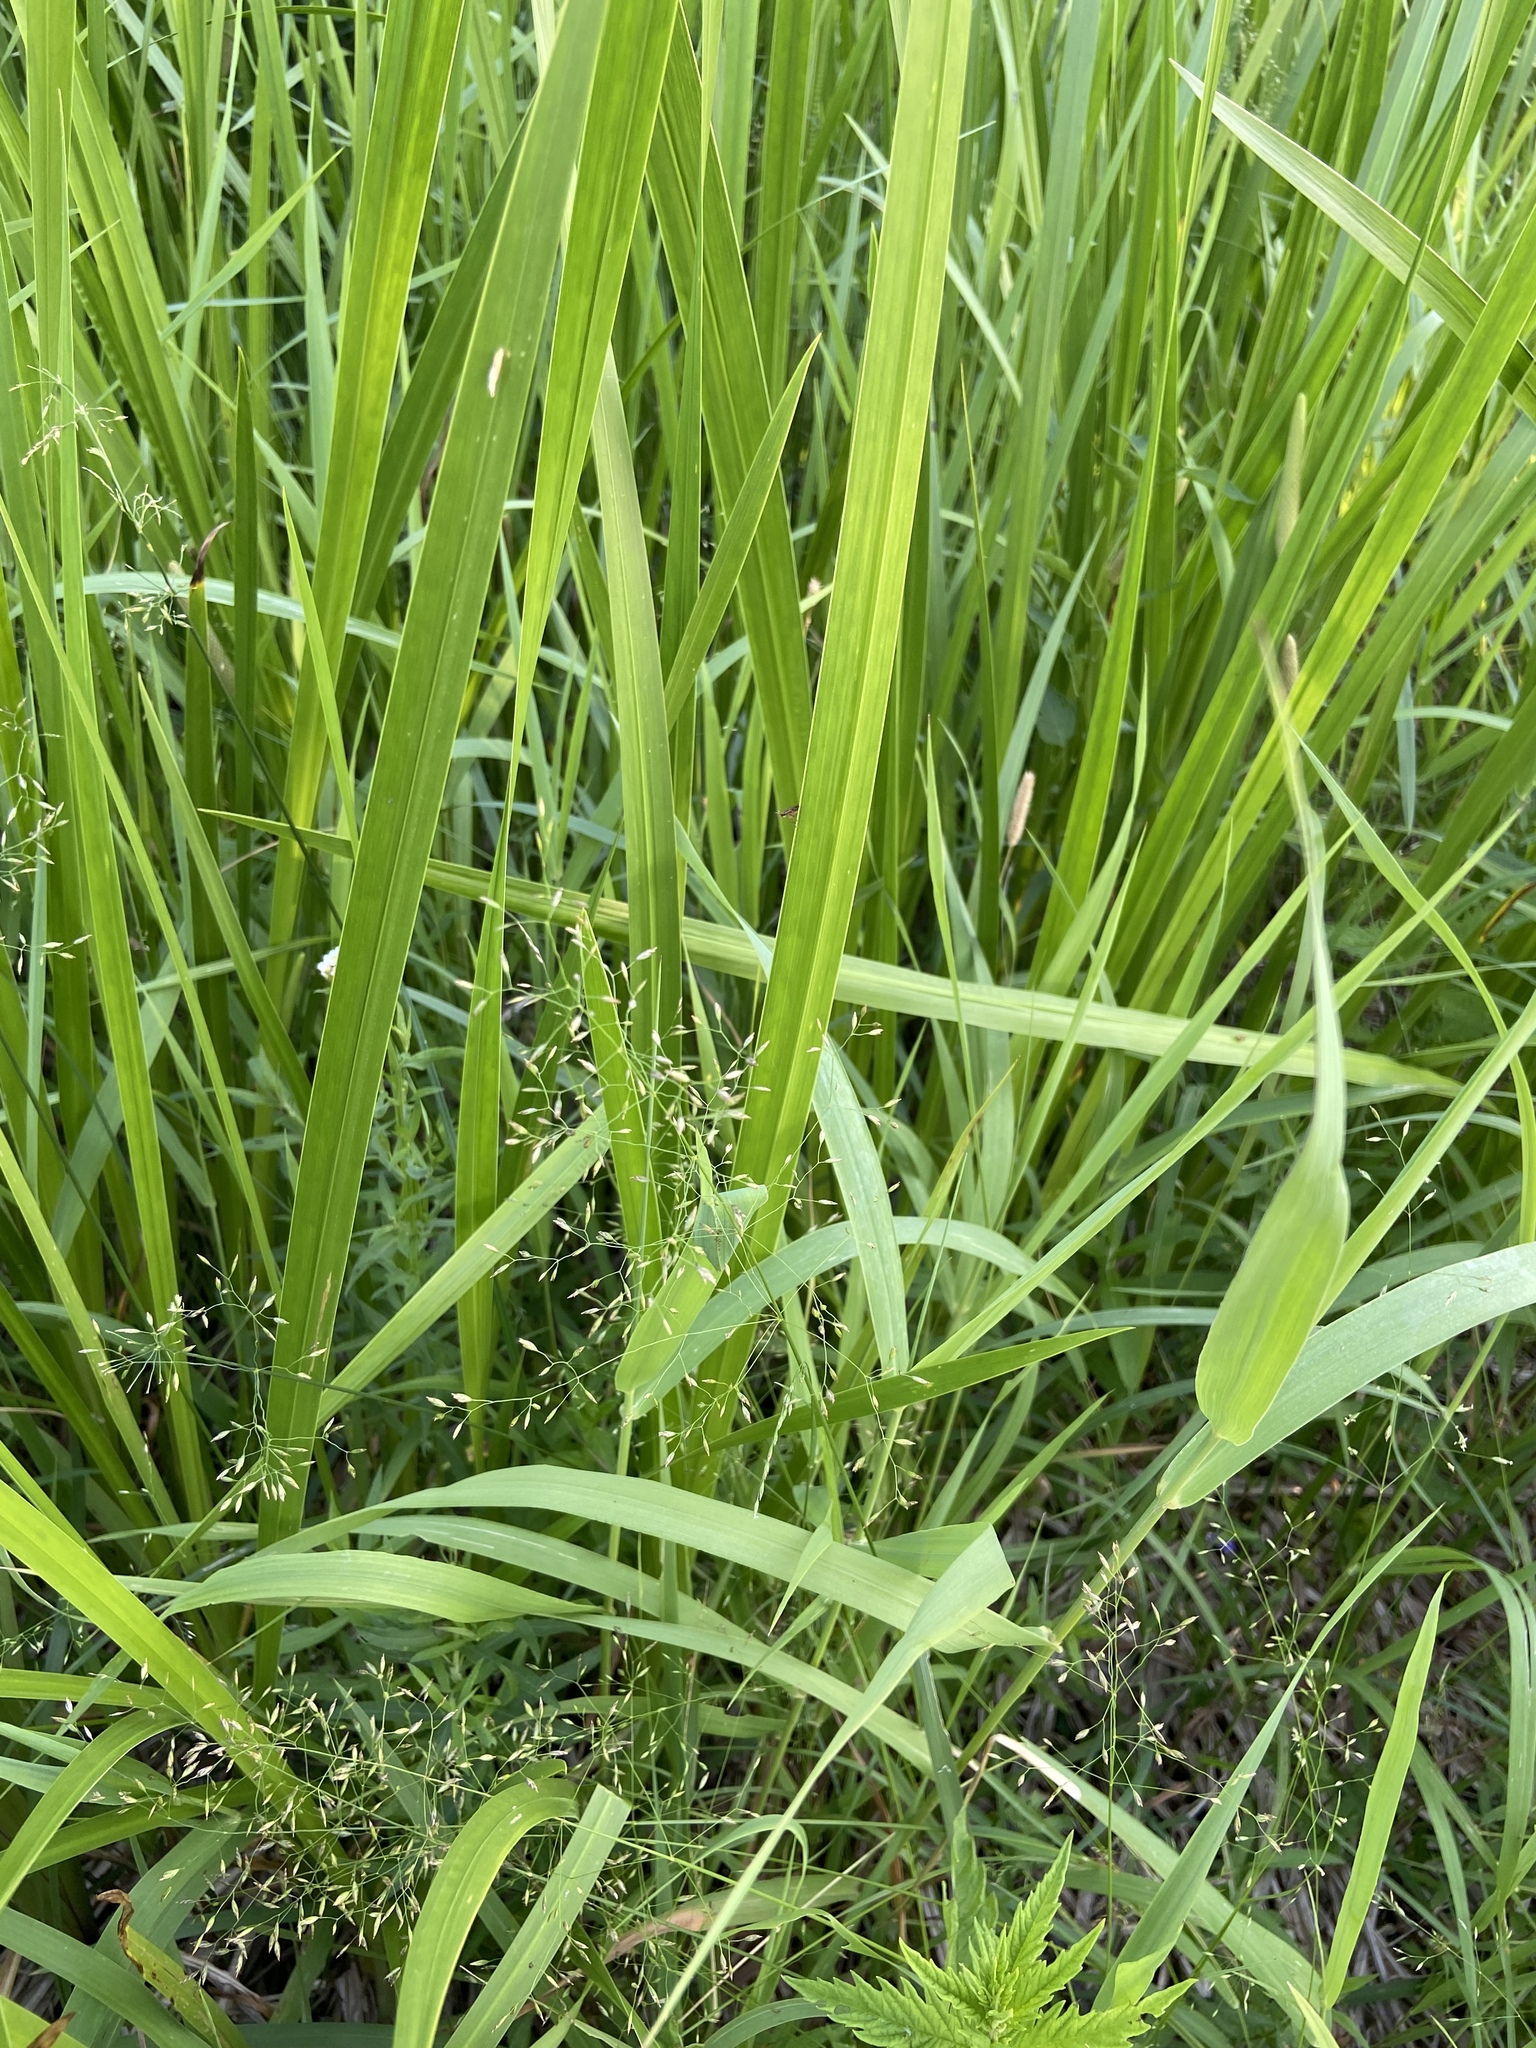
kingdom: Plantae
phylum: Tracheophyta
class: Liliopsida
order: Acorales
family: Acoraceae
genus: Acorus
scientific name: Acorus calamus
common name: Sweet-flag
